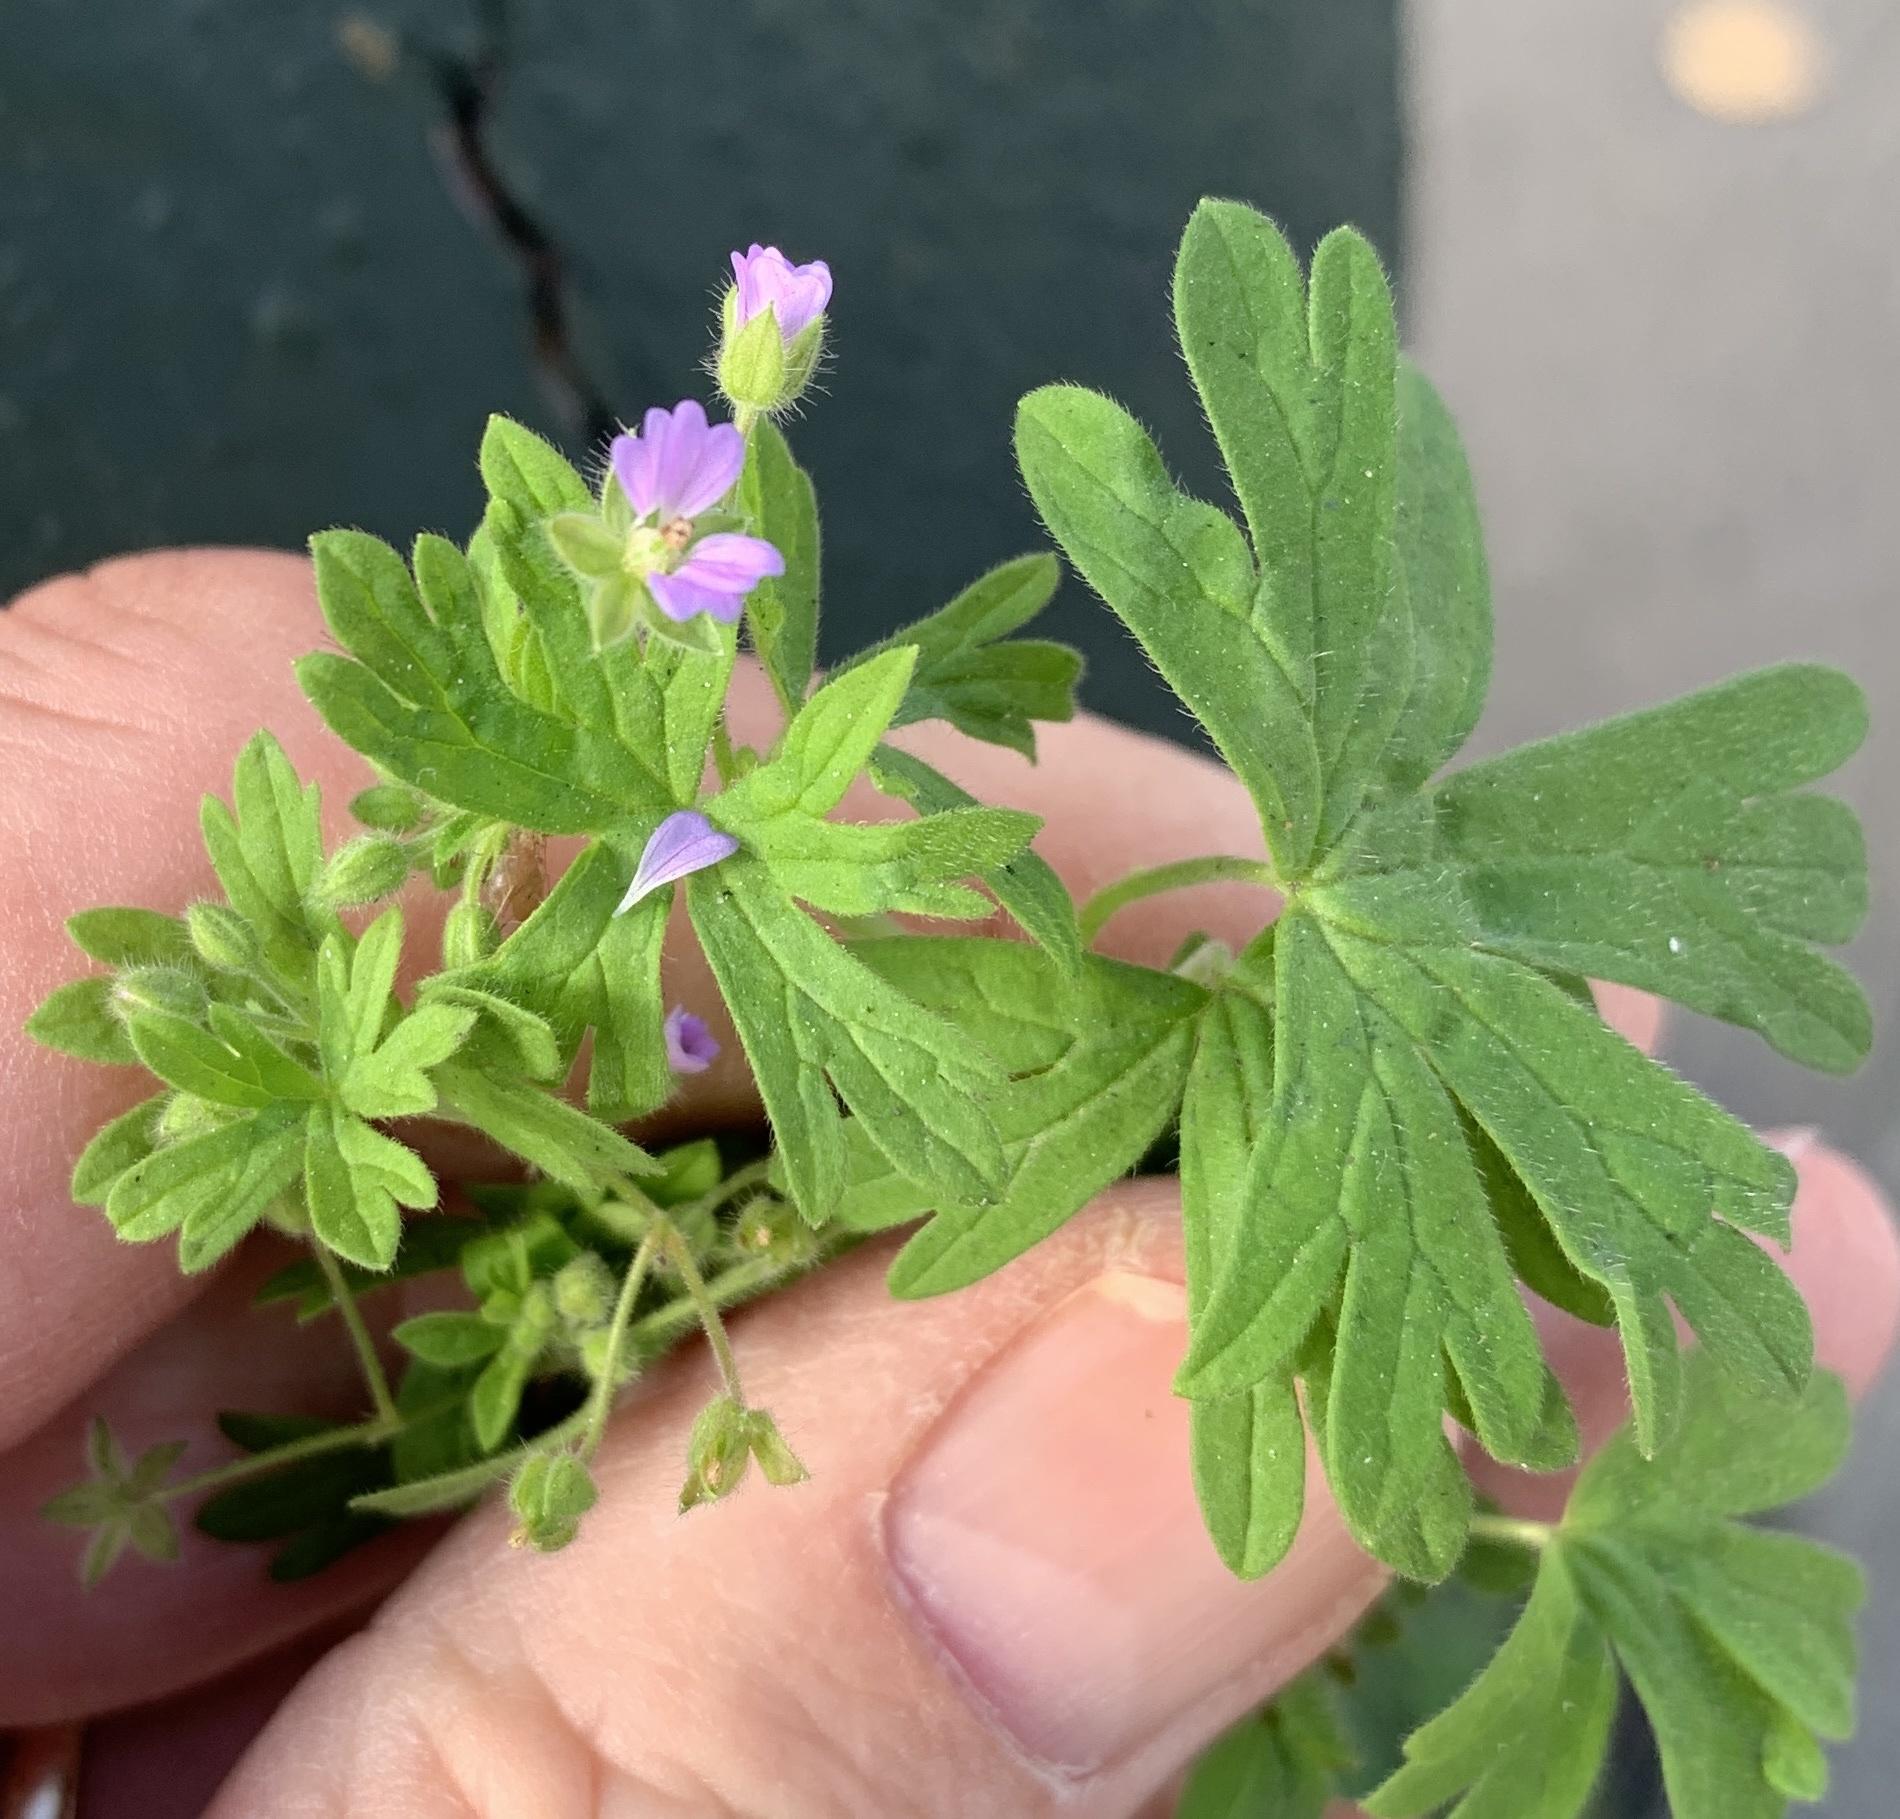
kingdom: Plantae
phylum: Tracheophyta
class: Magnoliopsida
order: Geraniales
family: Geraniaceae
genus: Geranium
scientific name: Geranium pusillum
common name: Small geranium
